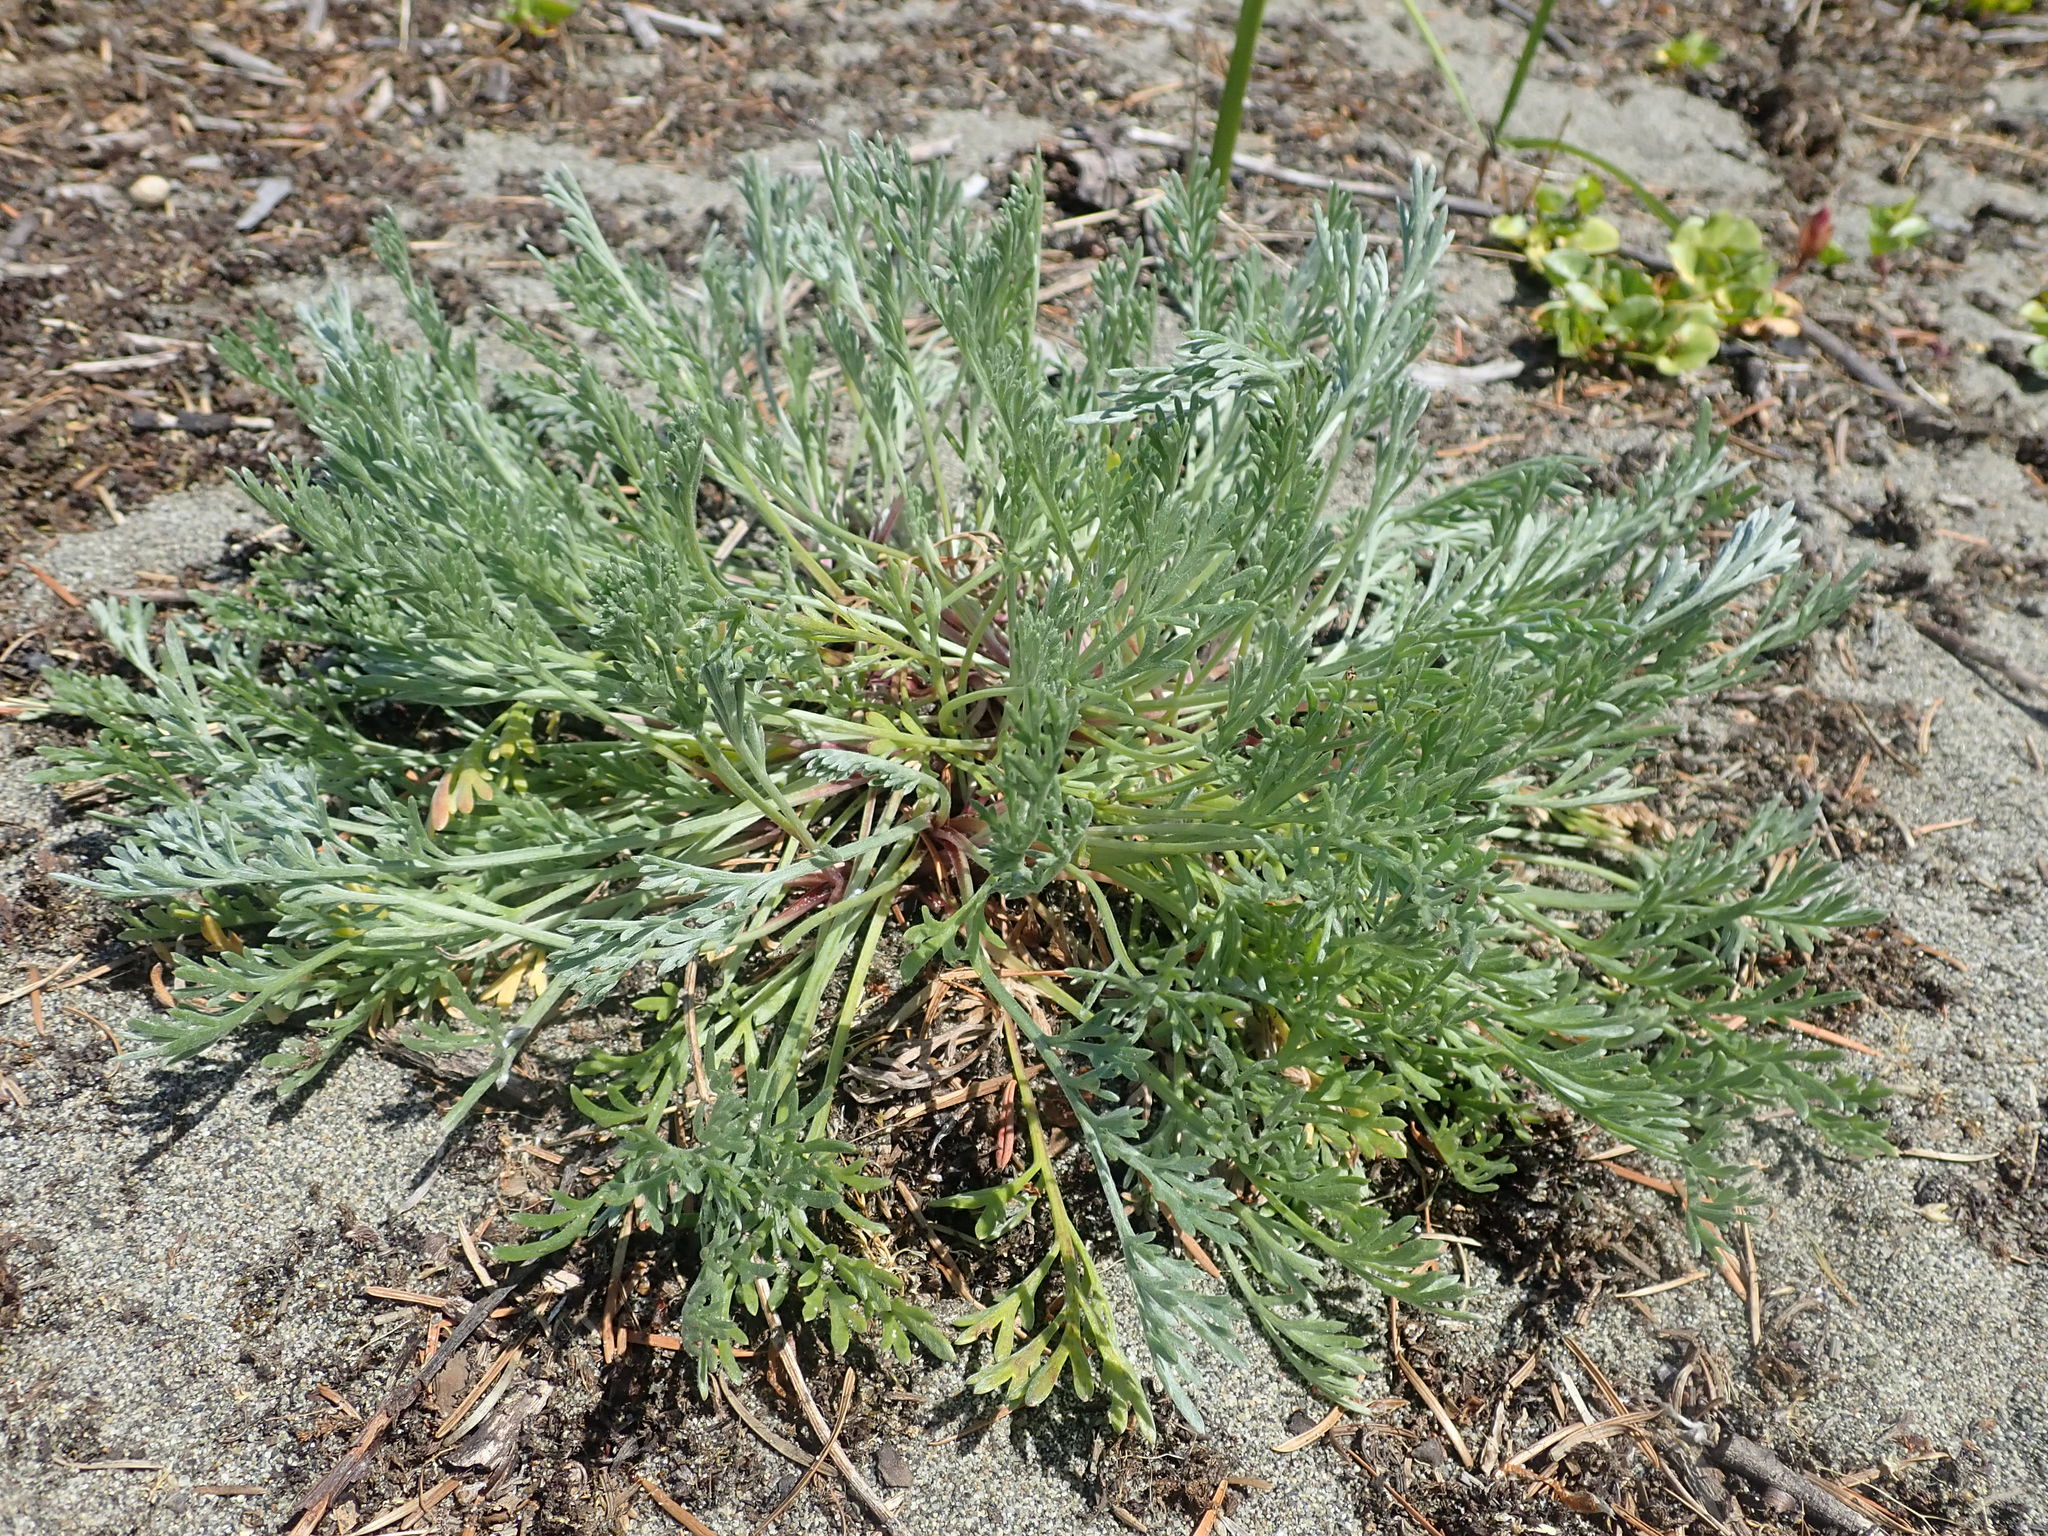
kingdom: Plantae
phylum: Tracheophyta
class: Magnoliopsida
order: Asterales
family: Asteraceae
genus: Artemisia
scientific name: Artemisia campestris
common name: Field wormwood
